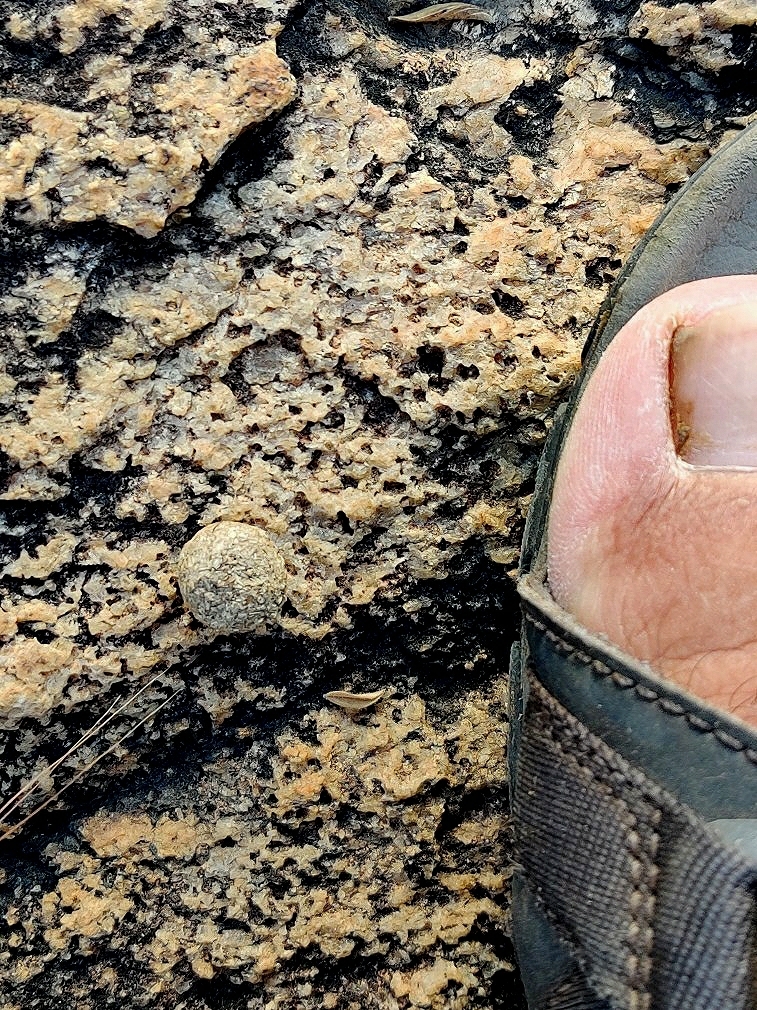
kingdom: Animalia
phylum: Chordata
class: Mammalia
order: Lagomorpha
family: Leporidae
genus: Lepus
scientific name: Lepus nigricollis
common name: Indian hare
